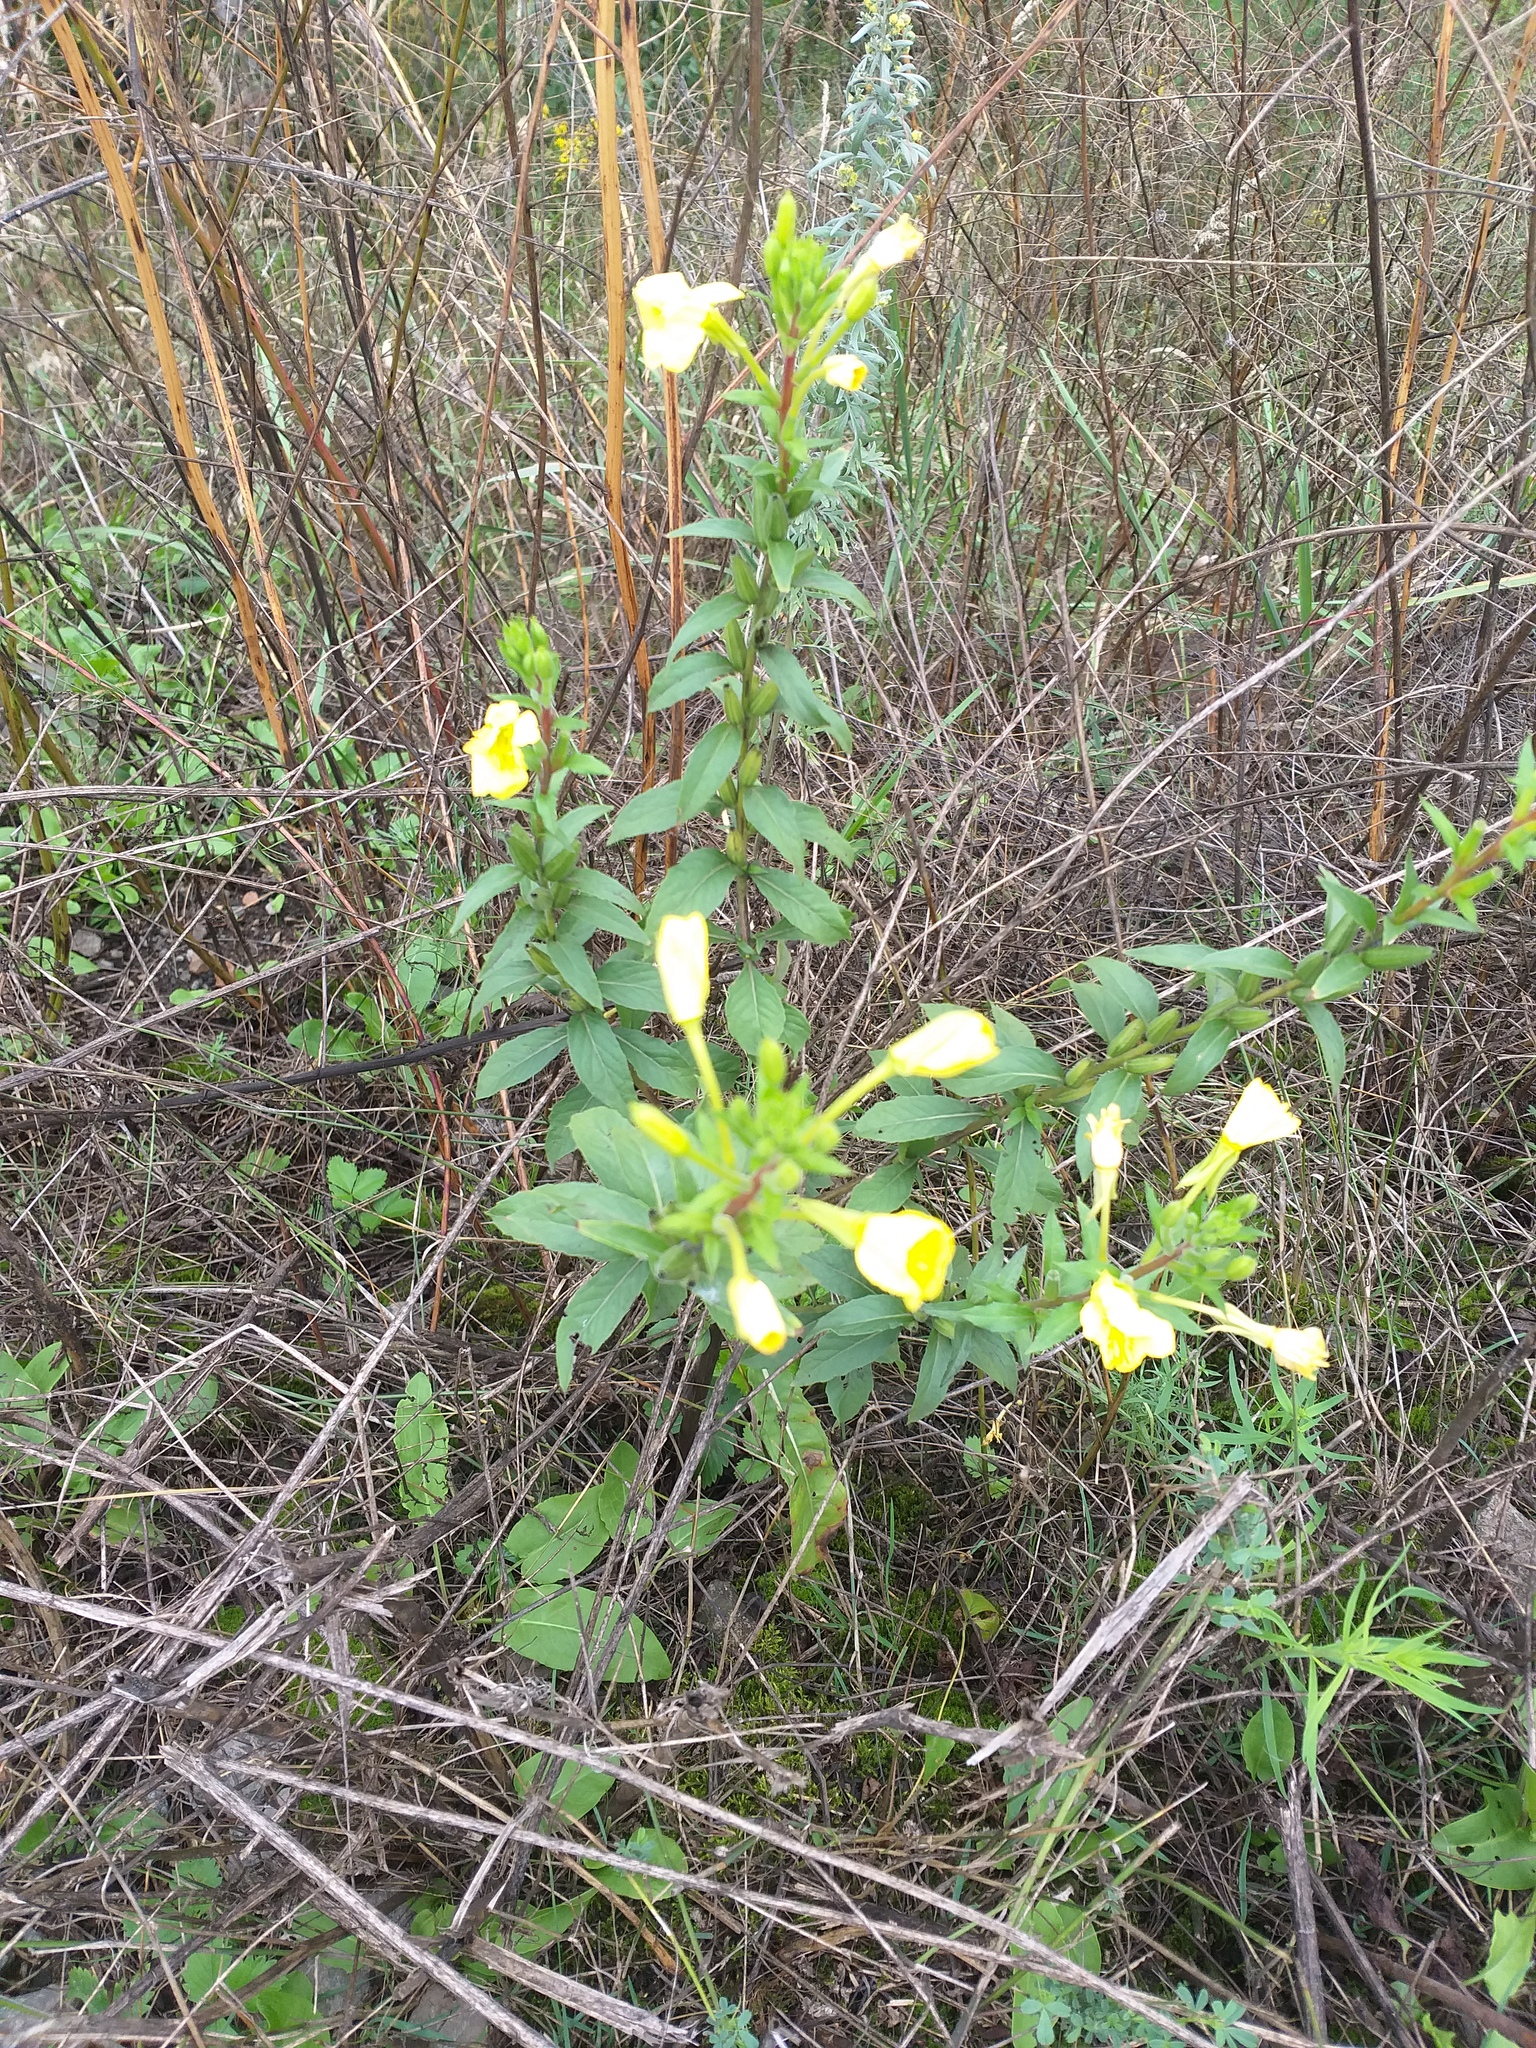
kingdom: Plantae
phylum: Tracheophyta
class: Magnoliopsida
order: Myrtales
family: Onagraceae
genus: Oenothera
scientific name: Oenothera rubricaulis
